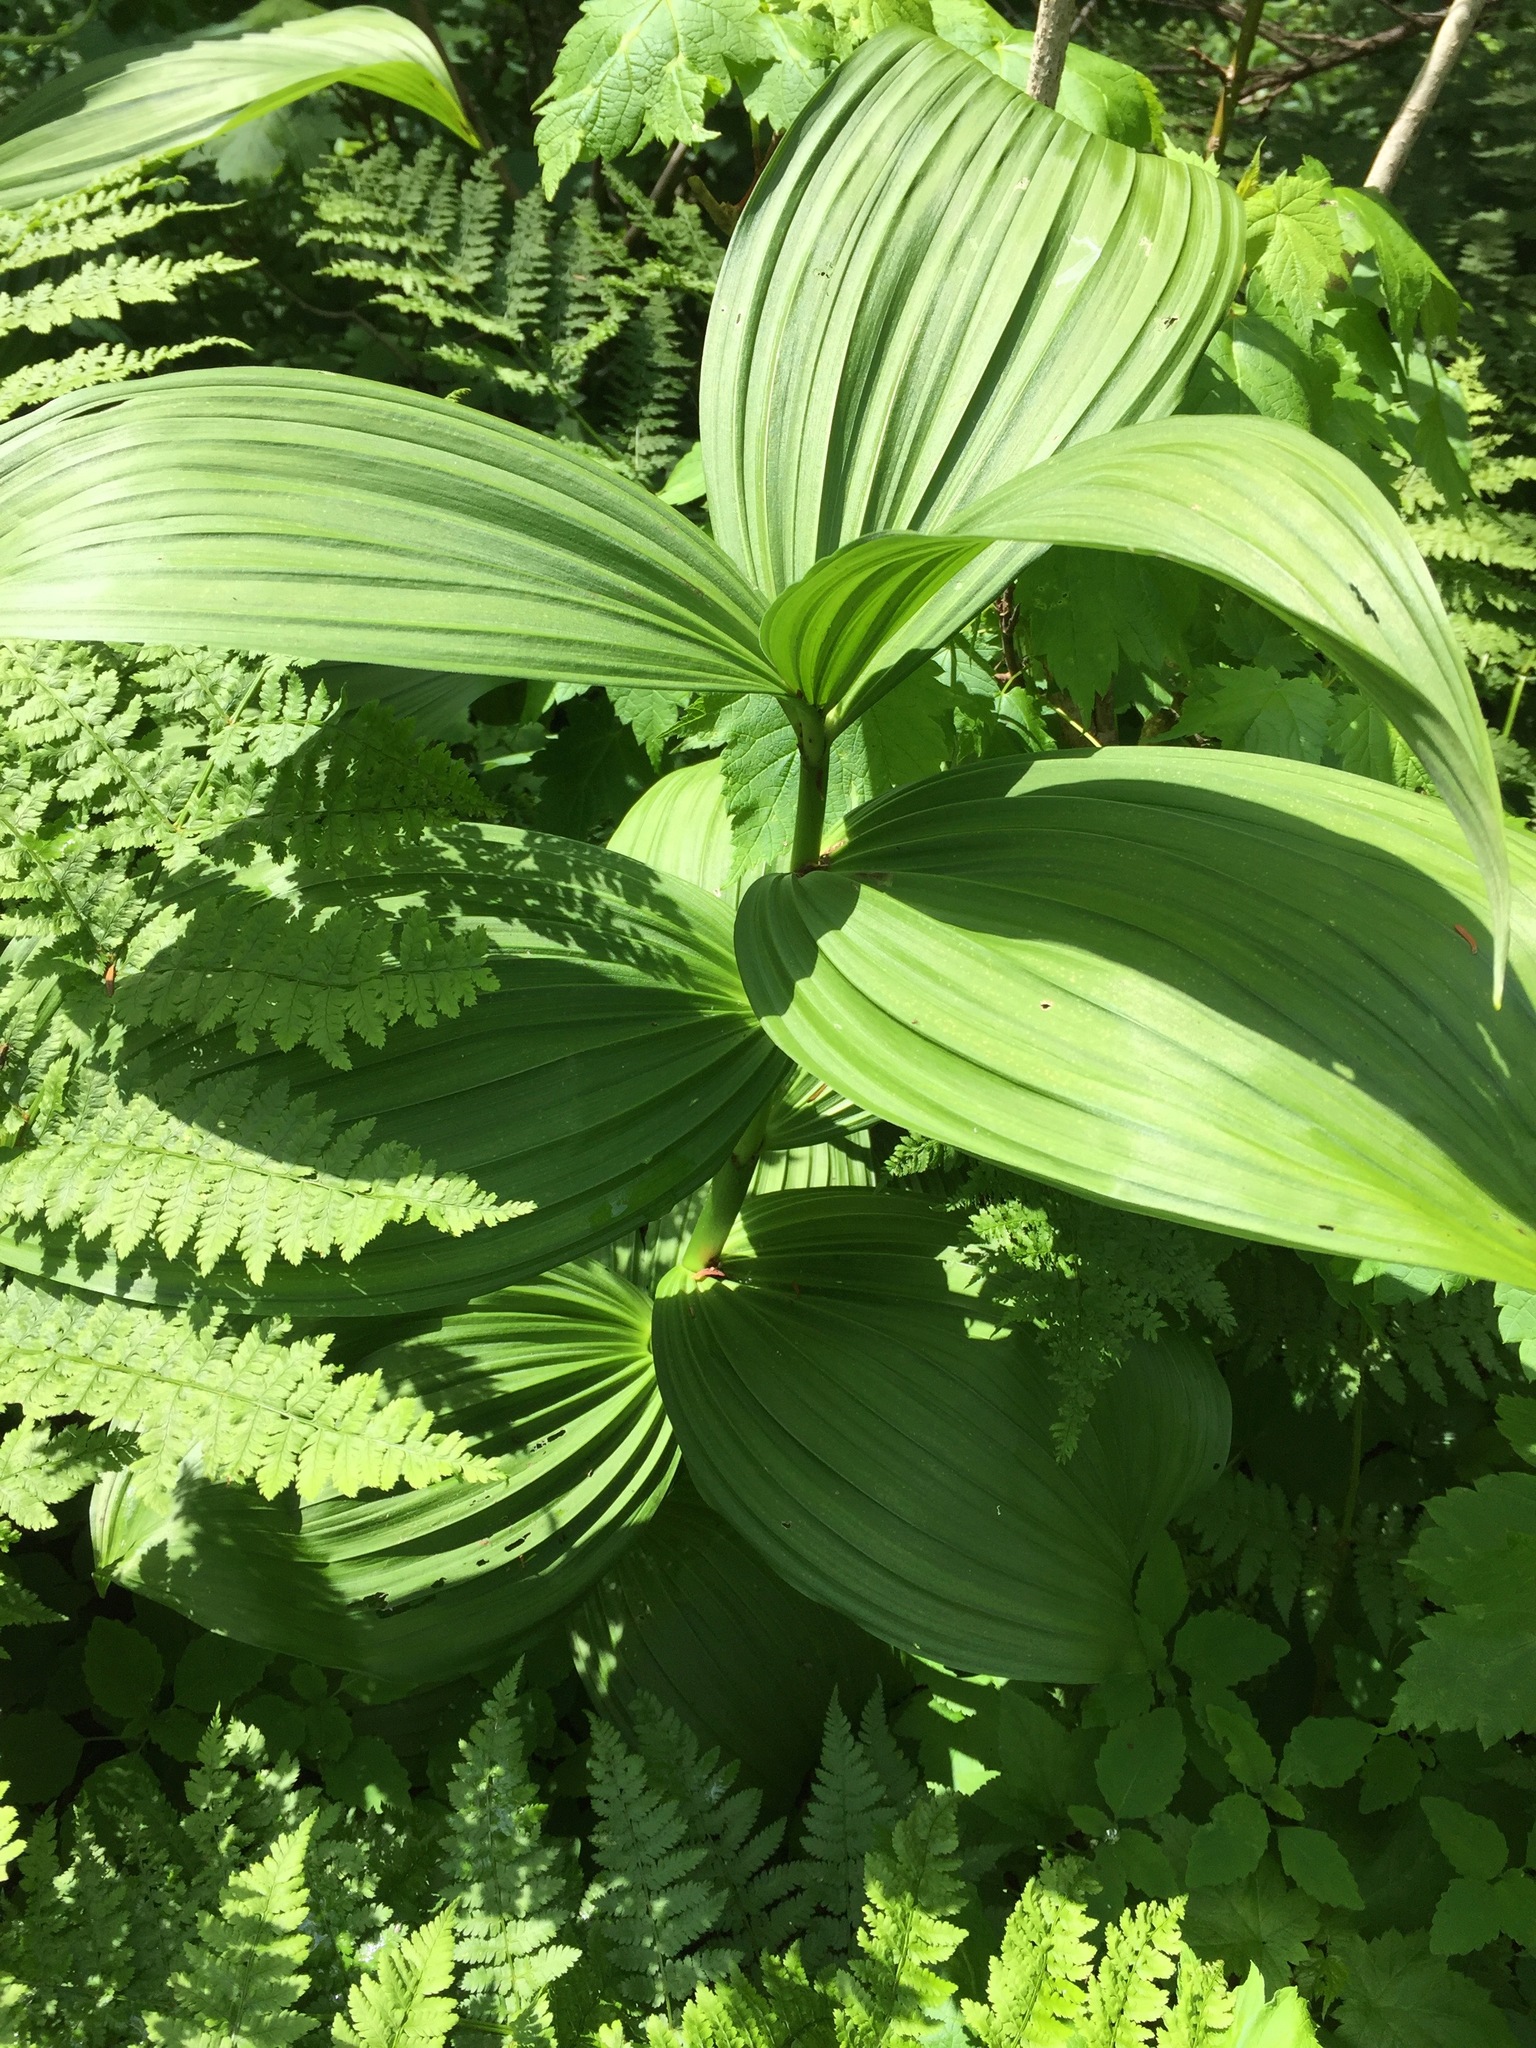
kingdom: Plantae
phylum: Tracheophyta
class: Liliopsida
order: Liliales
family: Melanthiaceae
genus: Veratrum
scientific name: Veratrum viride
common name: American false hellebore
